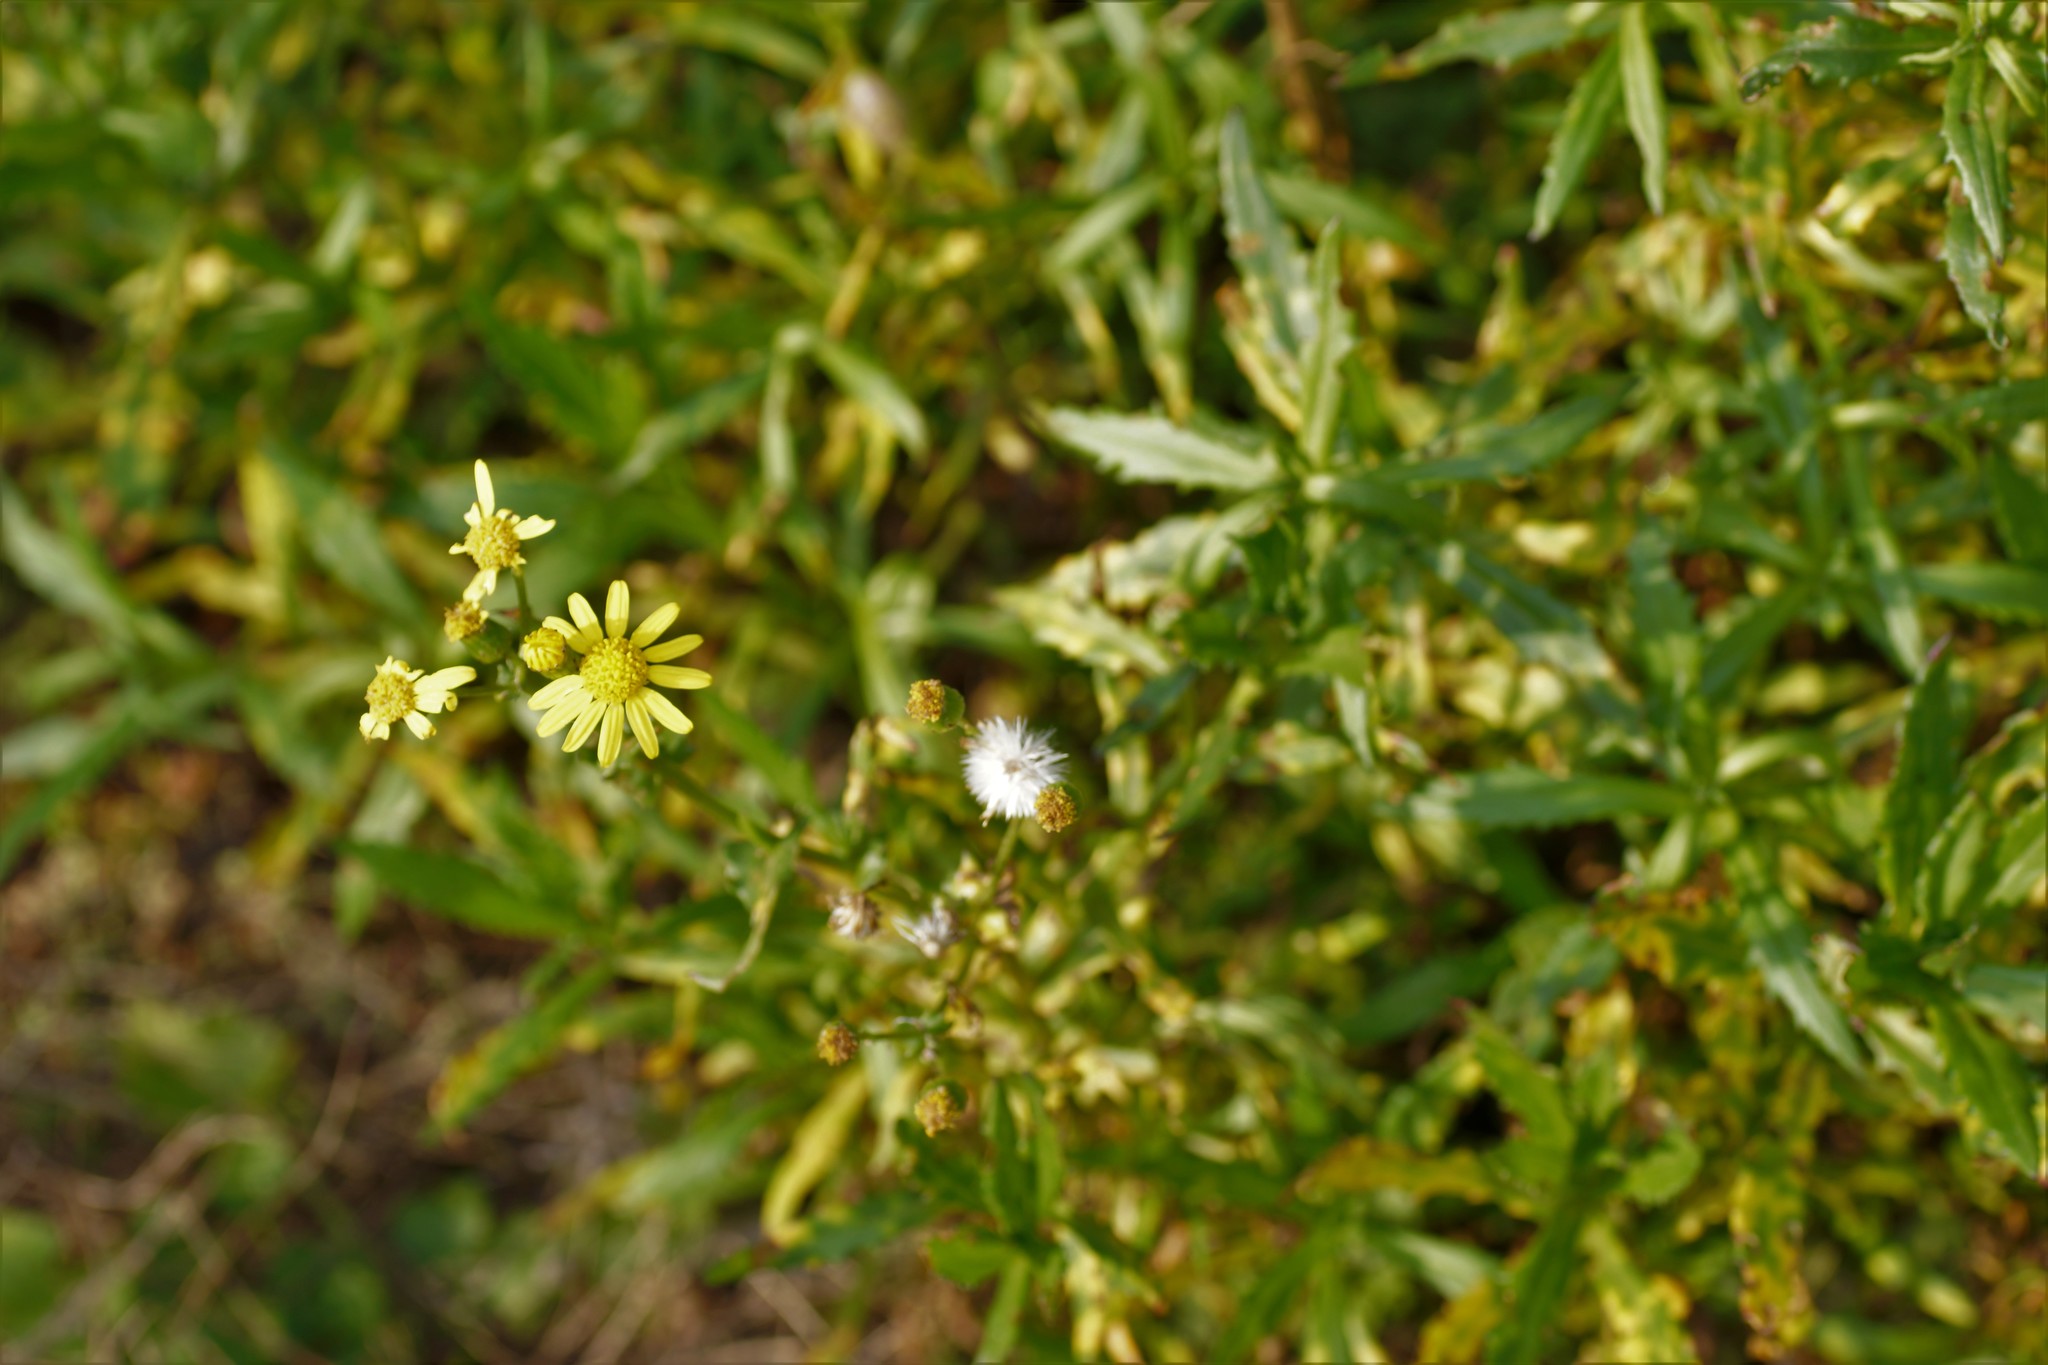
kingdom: Plantae
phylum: Tracheophyta
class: Magnoliopsida
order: Asterales
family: Asteraceae
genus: Senecio
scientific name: Senecio pinnatifolius
